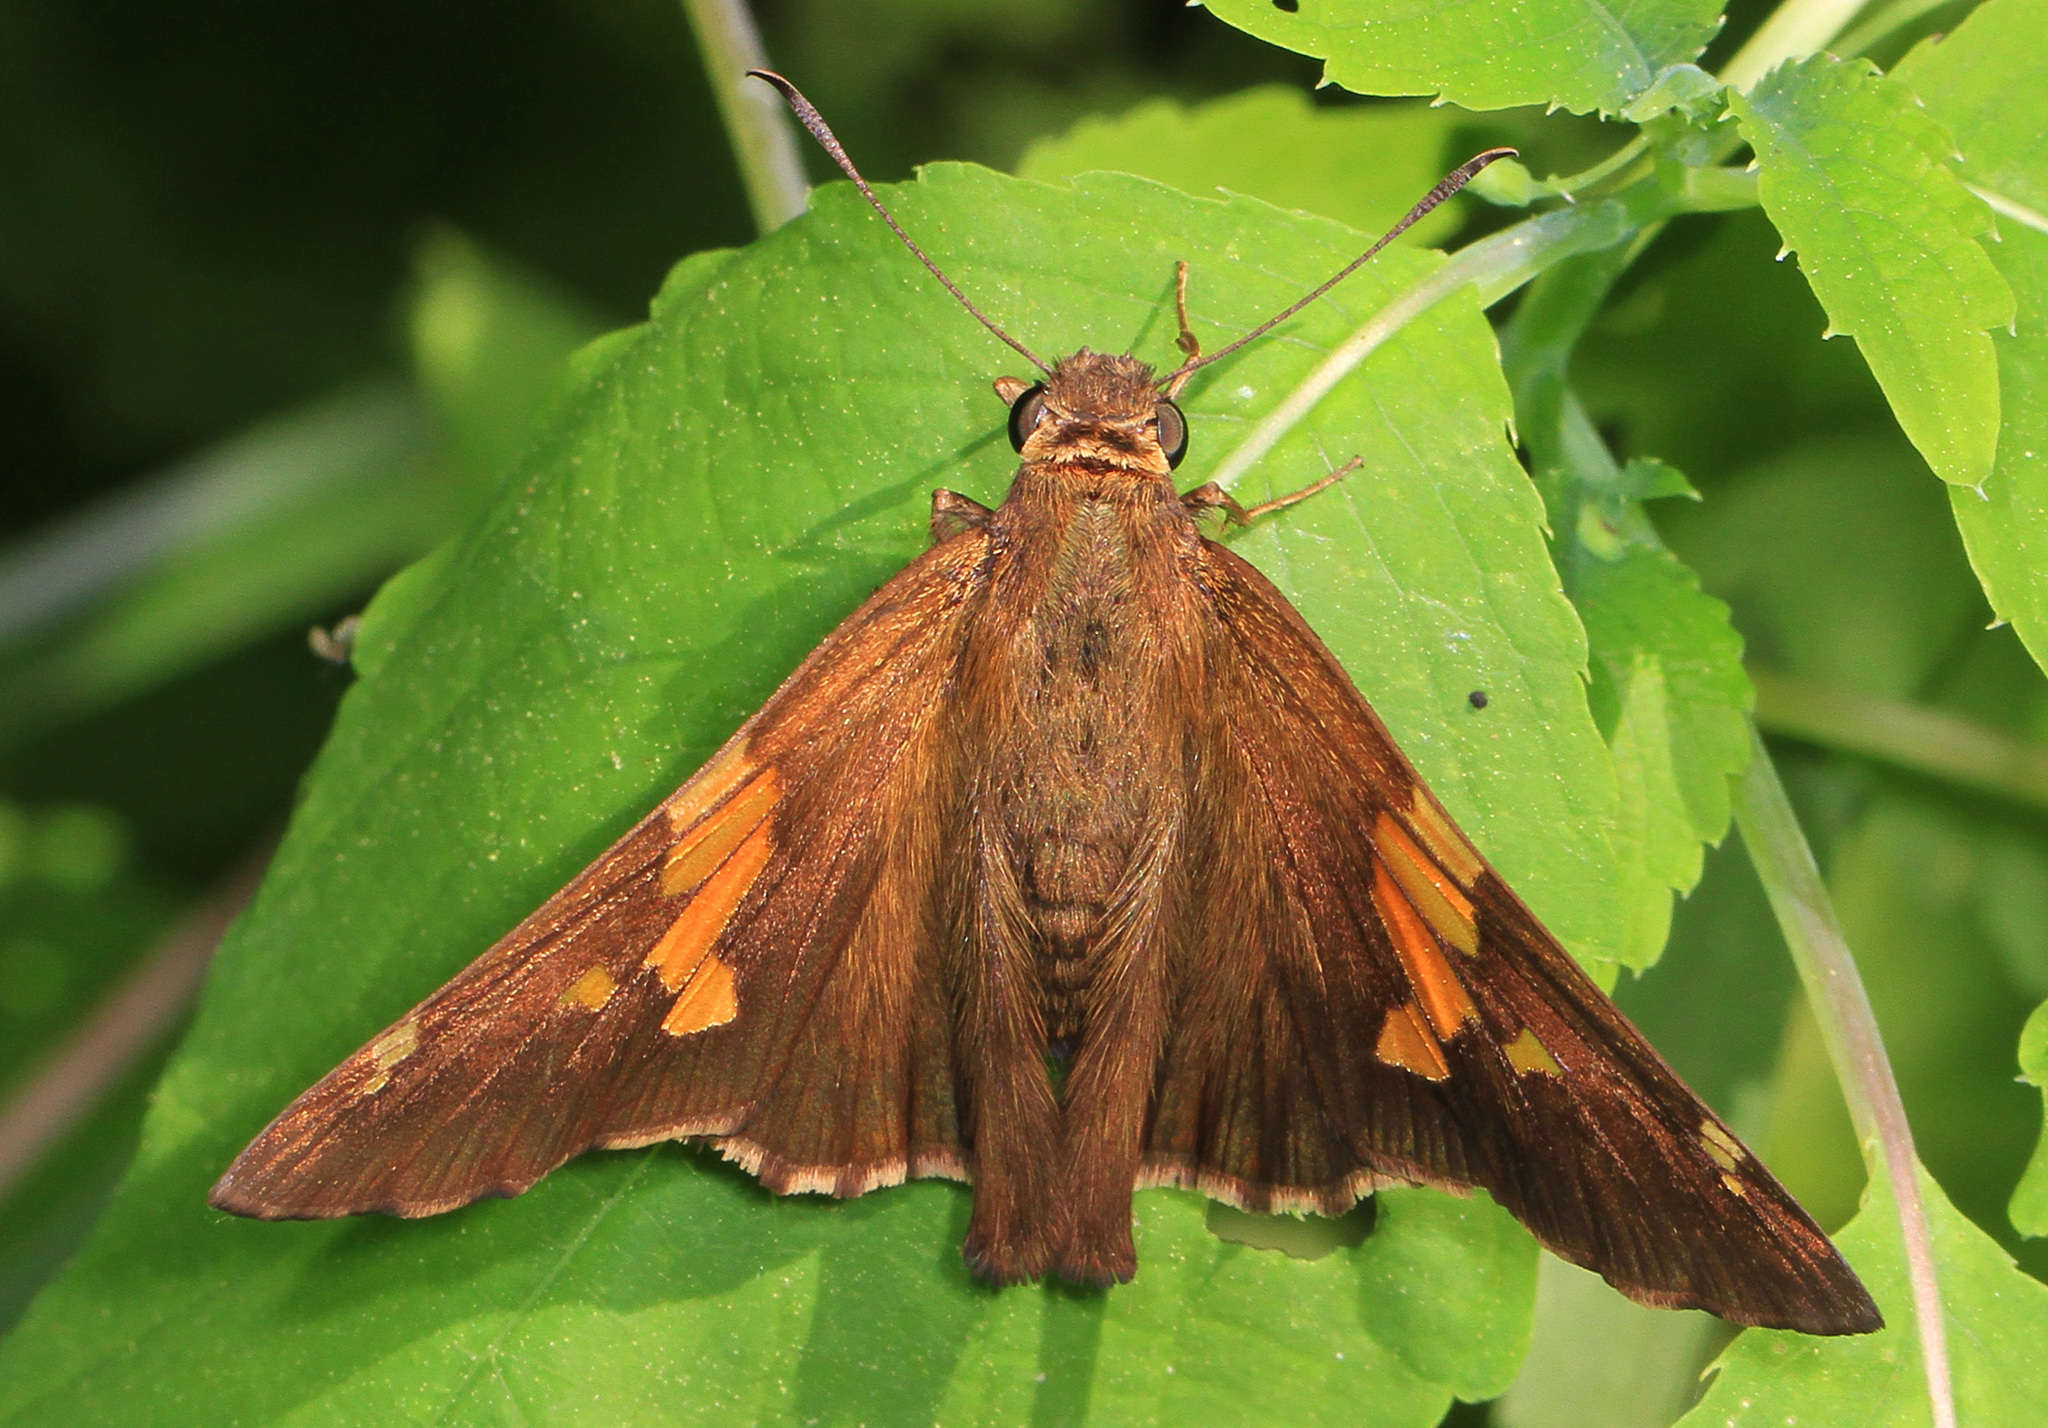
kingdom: Animalia
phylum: Arthropoda
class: Insecta
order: Lepidoptera
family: Hesperiidae
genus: Epargyreus
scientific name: Epargyreus clarus
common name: Silver-spotted skipper
